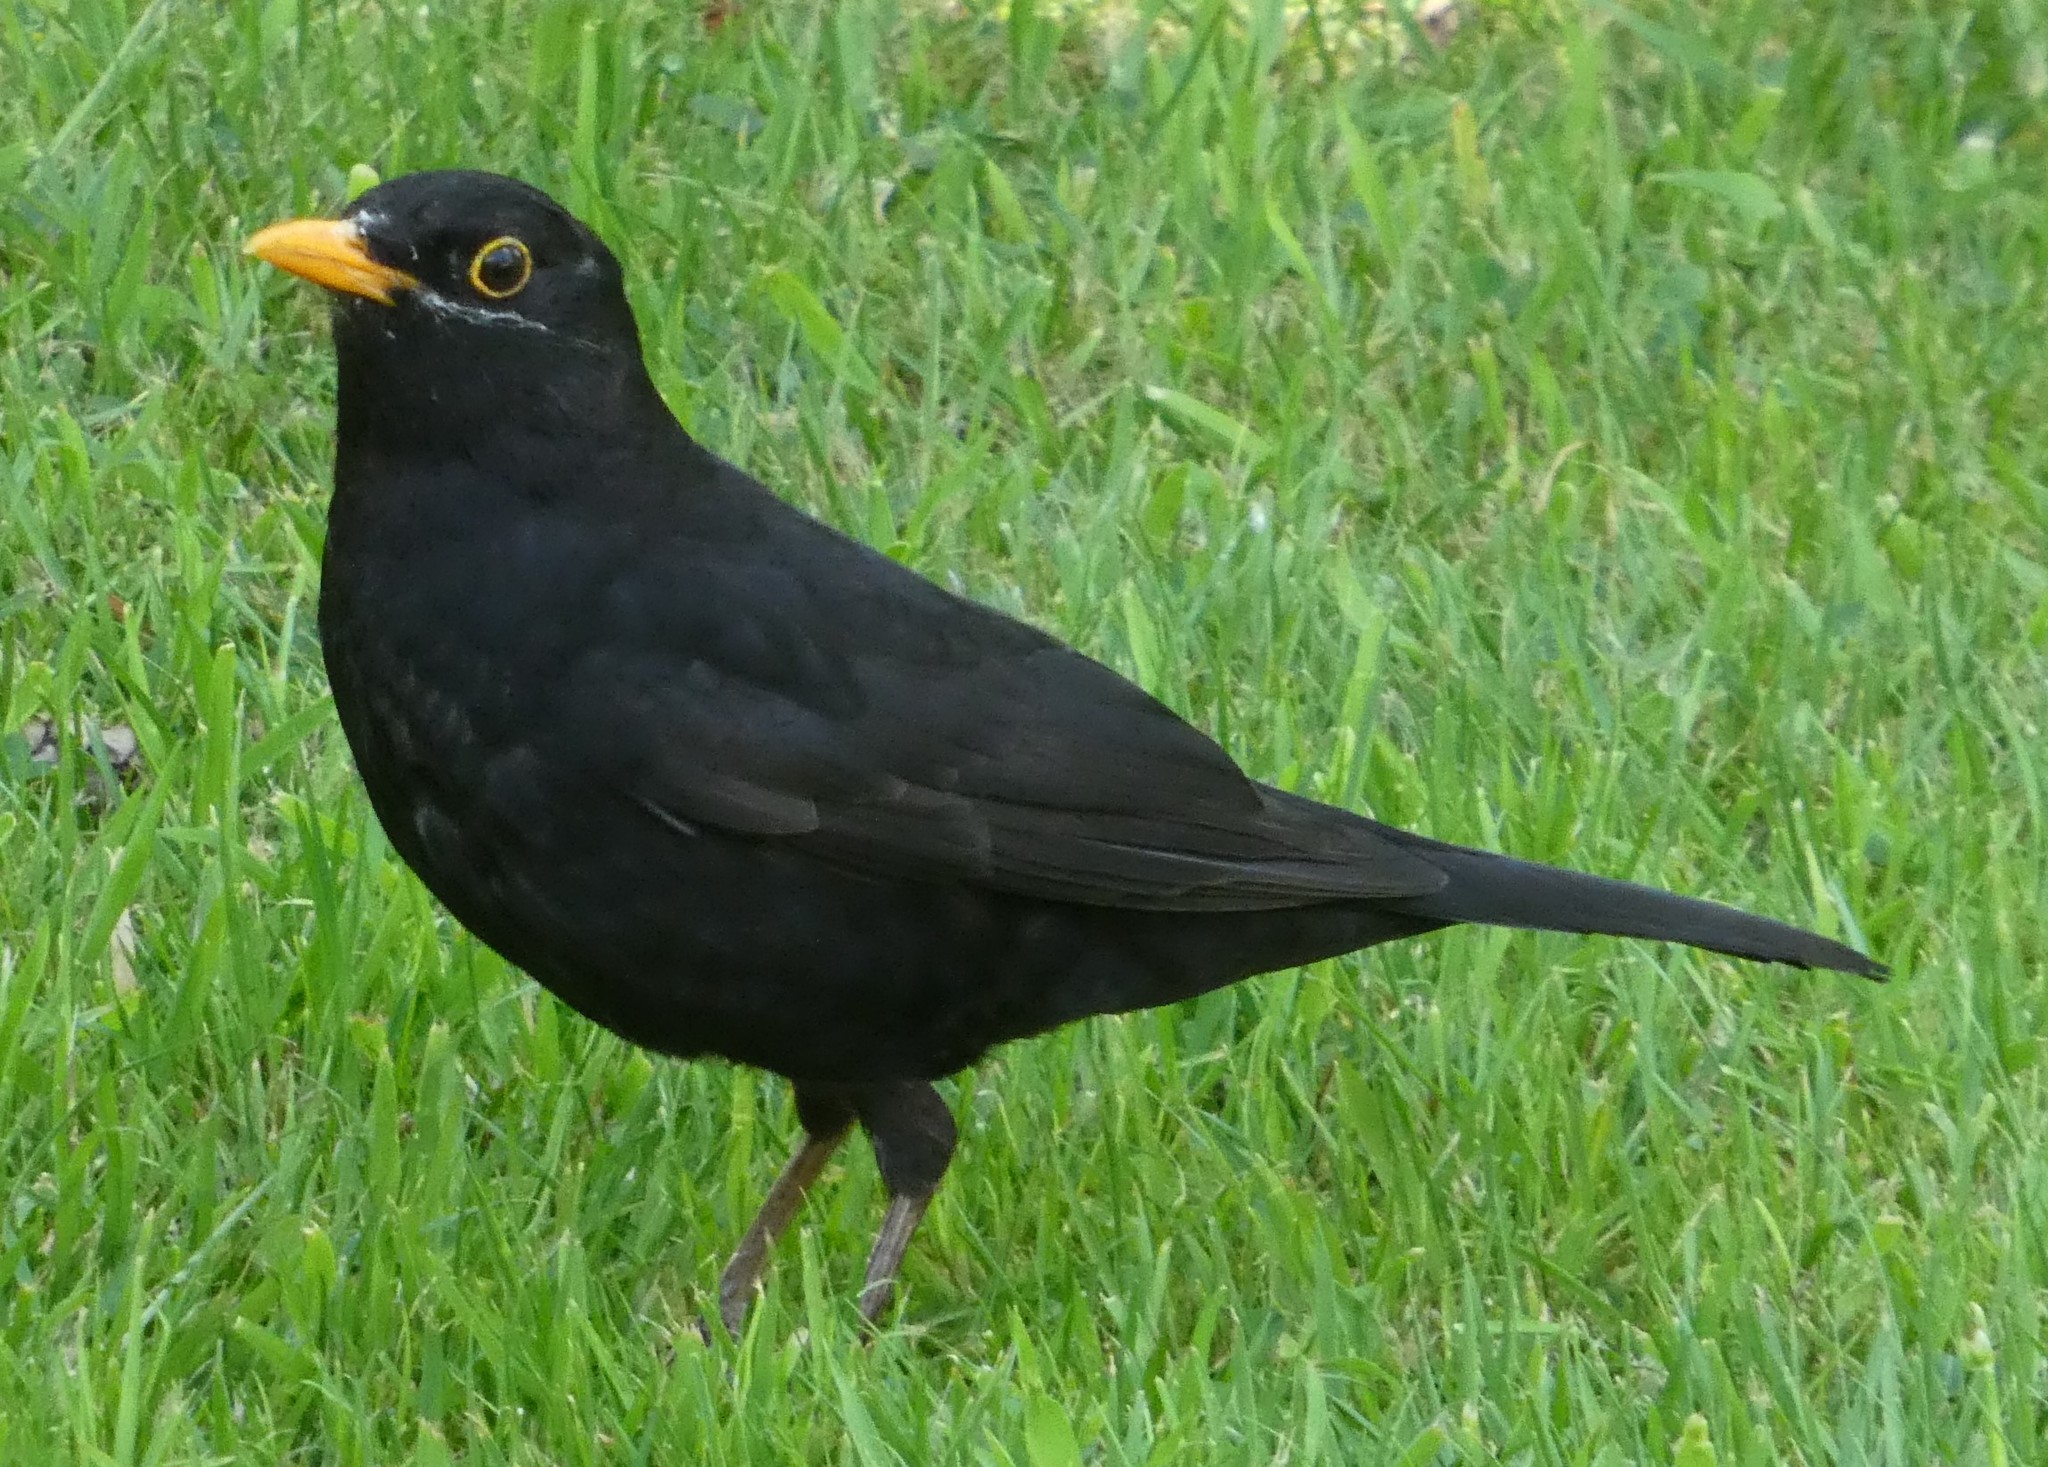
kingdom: Animalia
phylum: Chordata
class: Aves
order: Passeriformes
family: Turdidae
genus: Turdus
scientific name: Turdus merula
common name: Common blackbird
